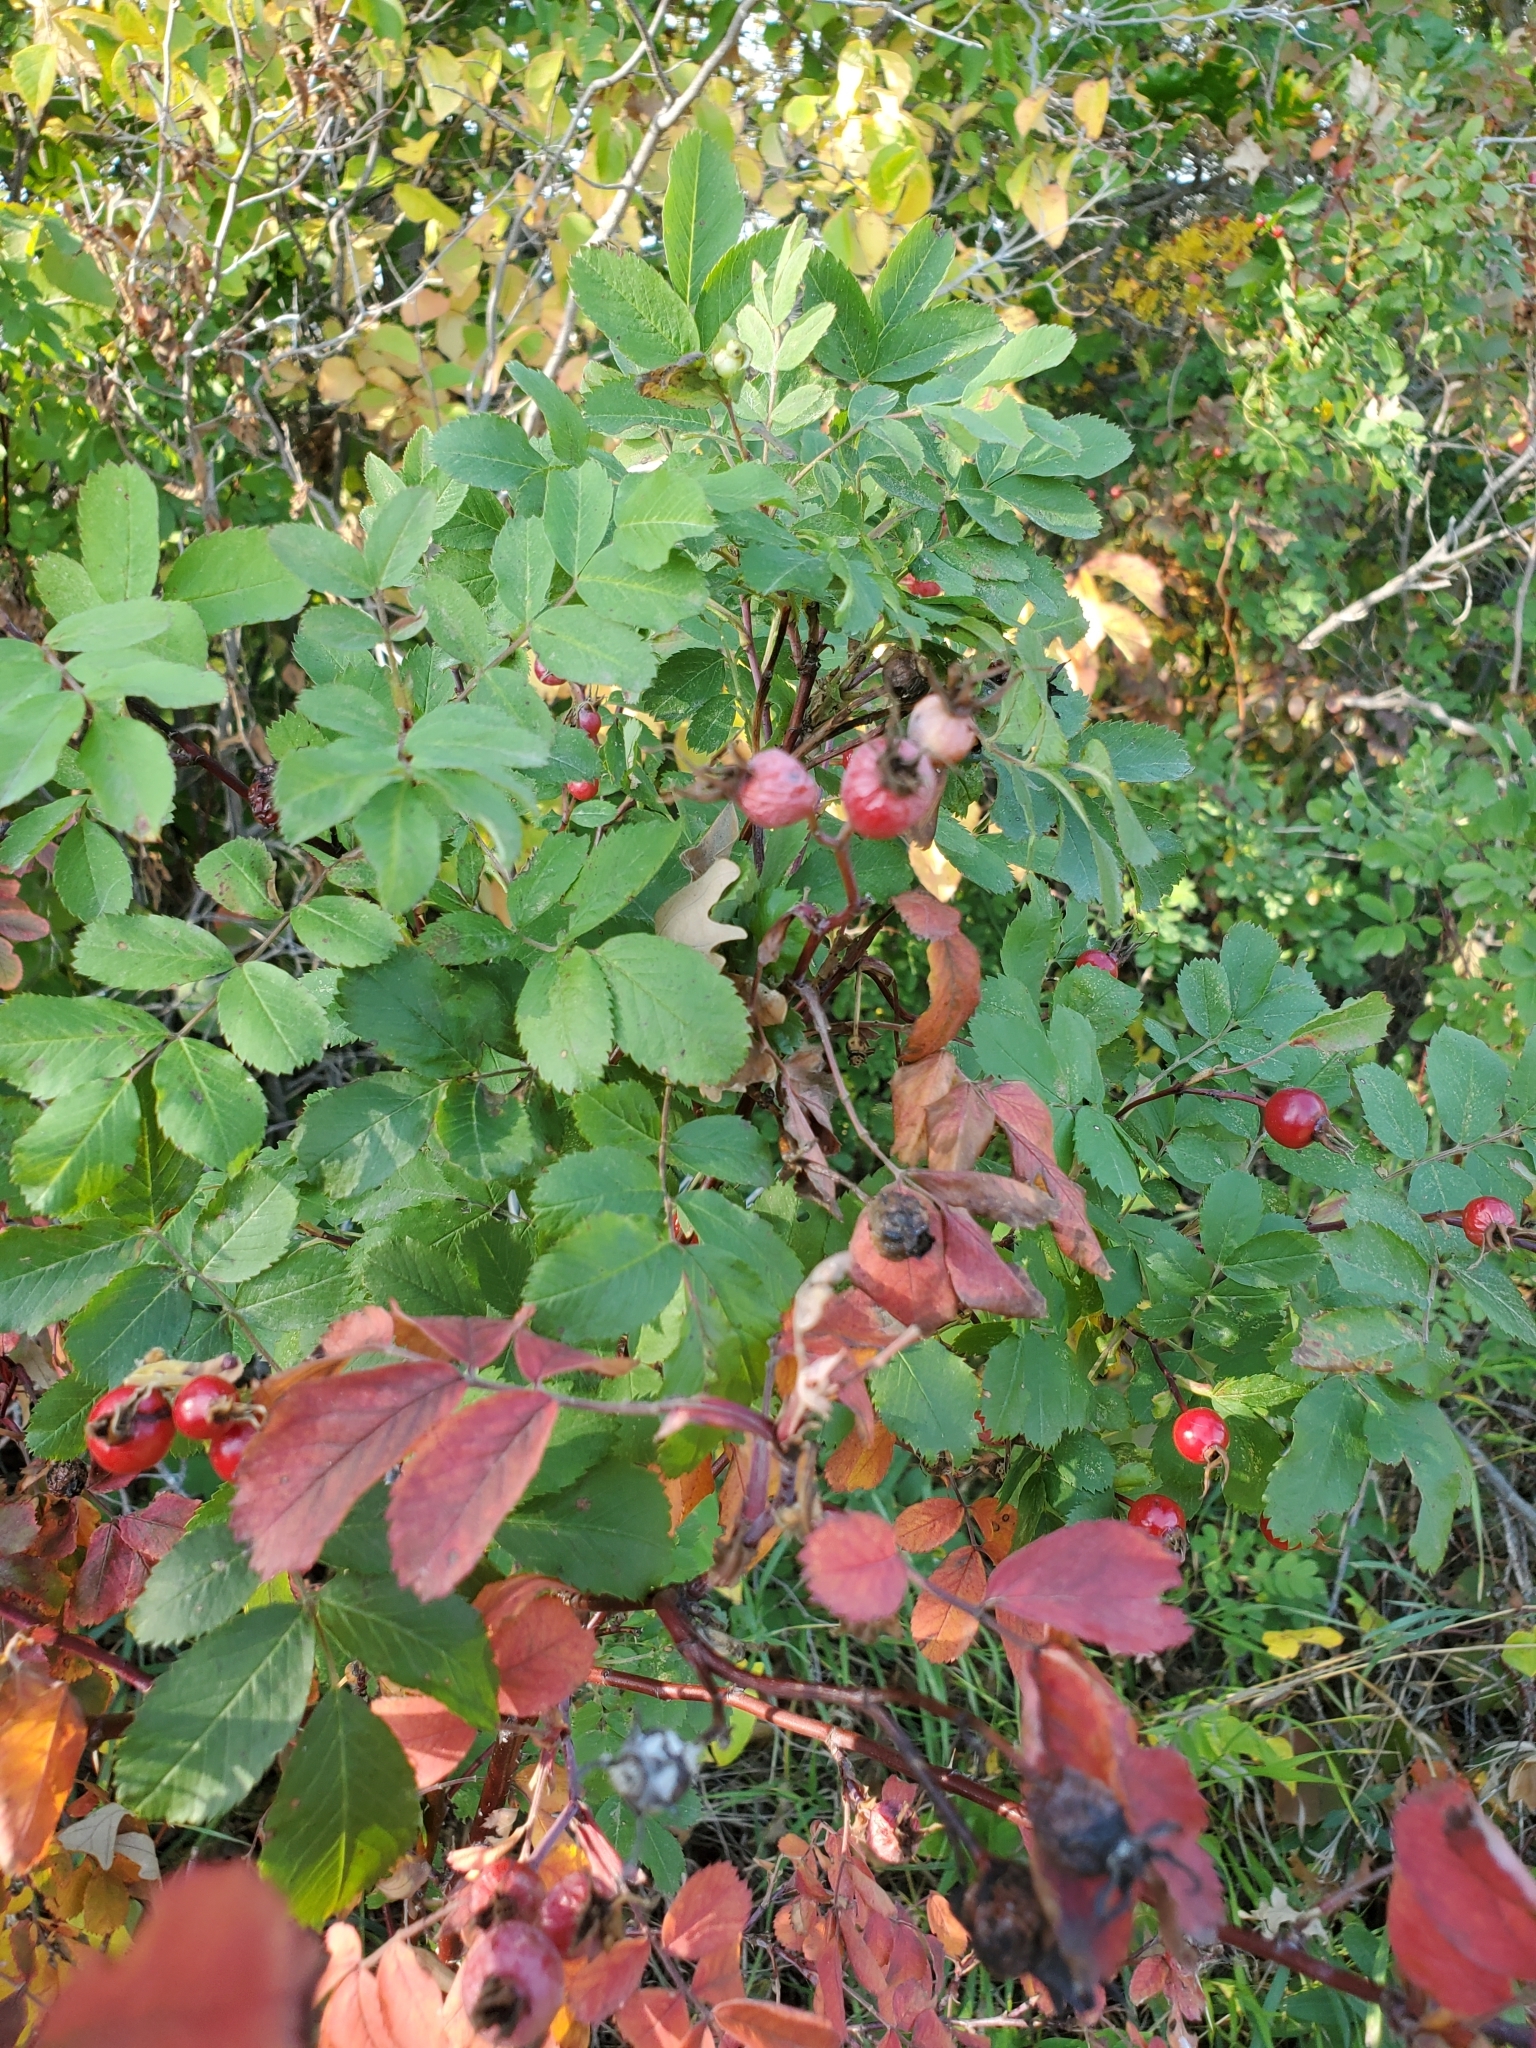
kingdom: Animalia
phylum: Arthropoda
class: Insecta
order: Hymenoptera
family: Cynipidae
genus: Diplolepis
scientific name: Diplolepis gracilis
